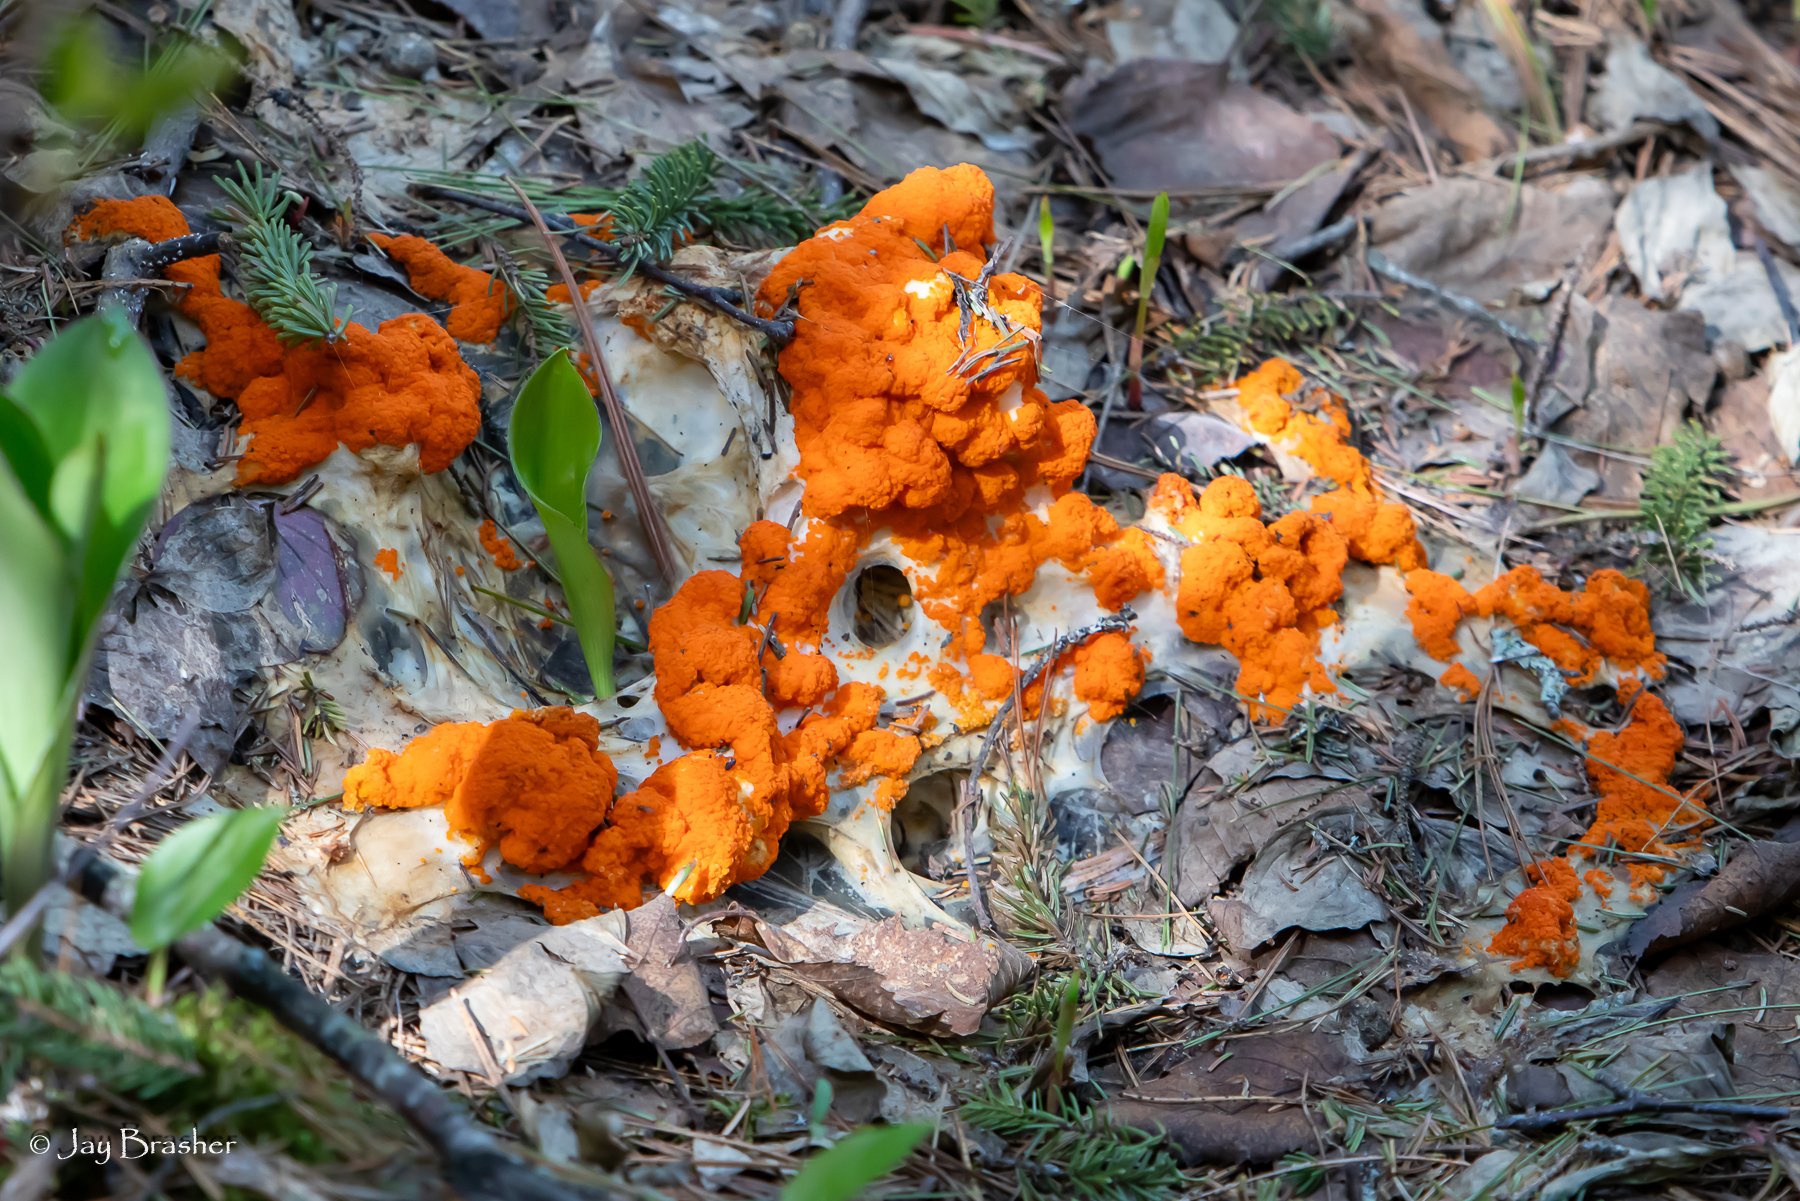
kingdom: Fungi
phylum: Ascomycota
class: Pezizomycetes
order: Pezizales
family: Pyronemataceae
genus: Byssonectria
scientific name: Byssonectria terrestris
